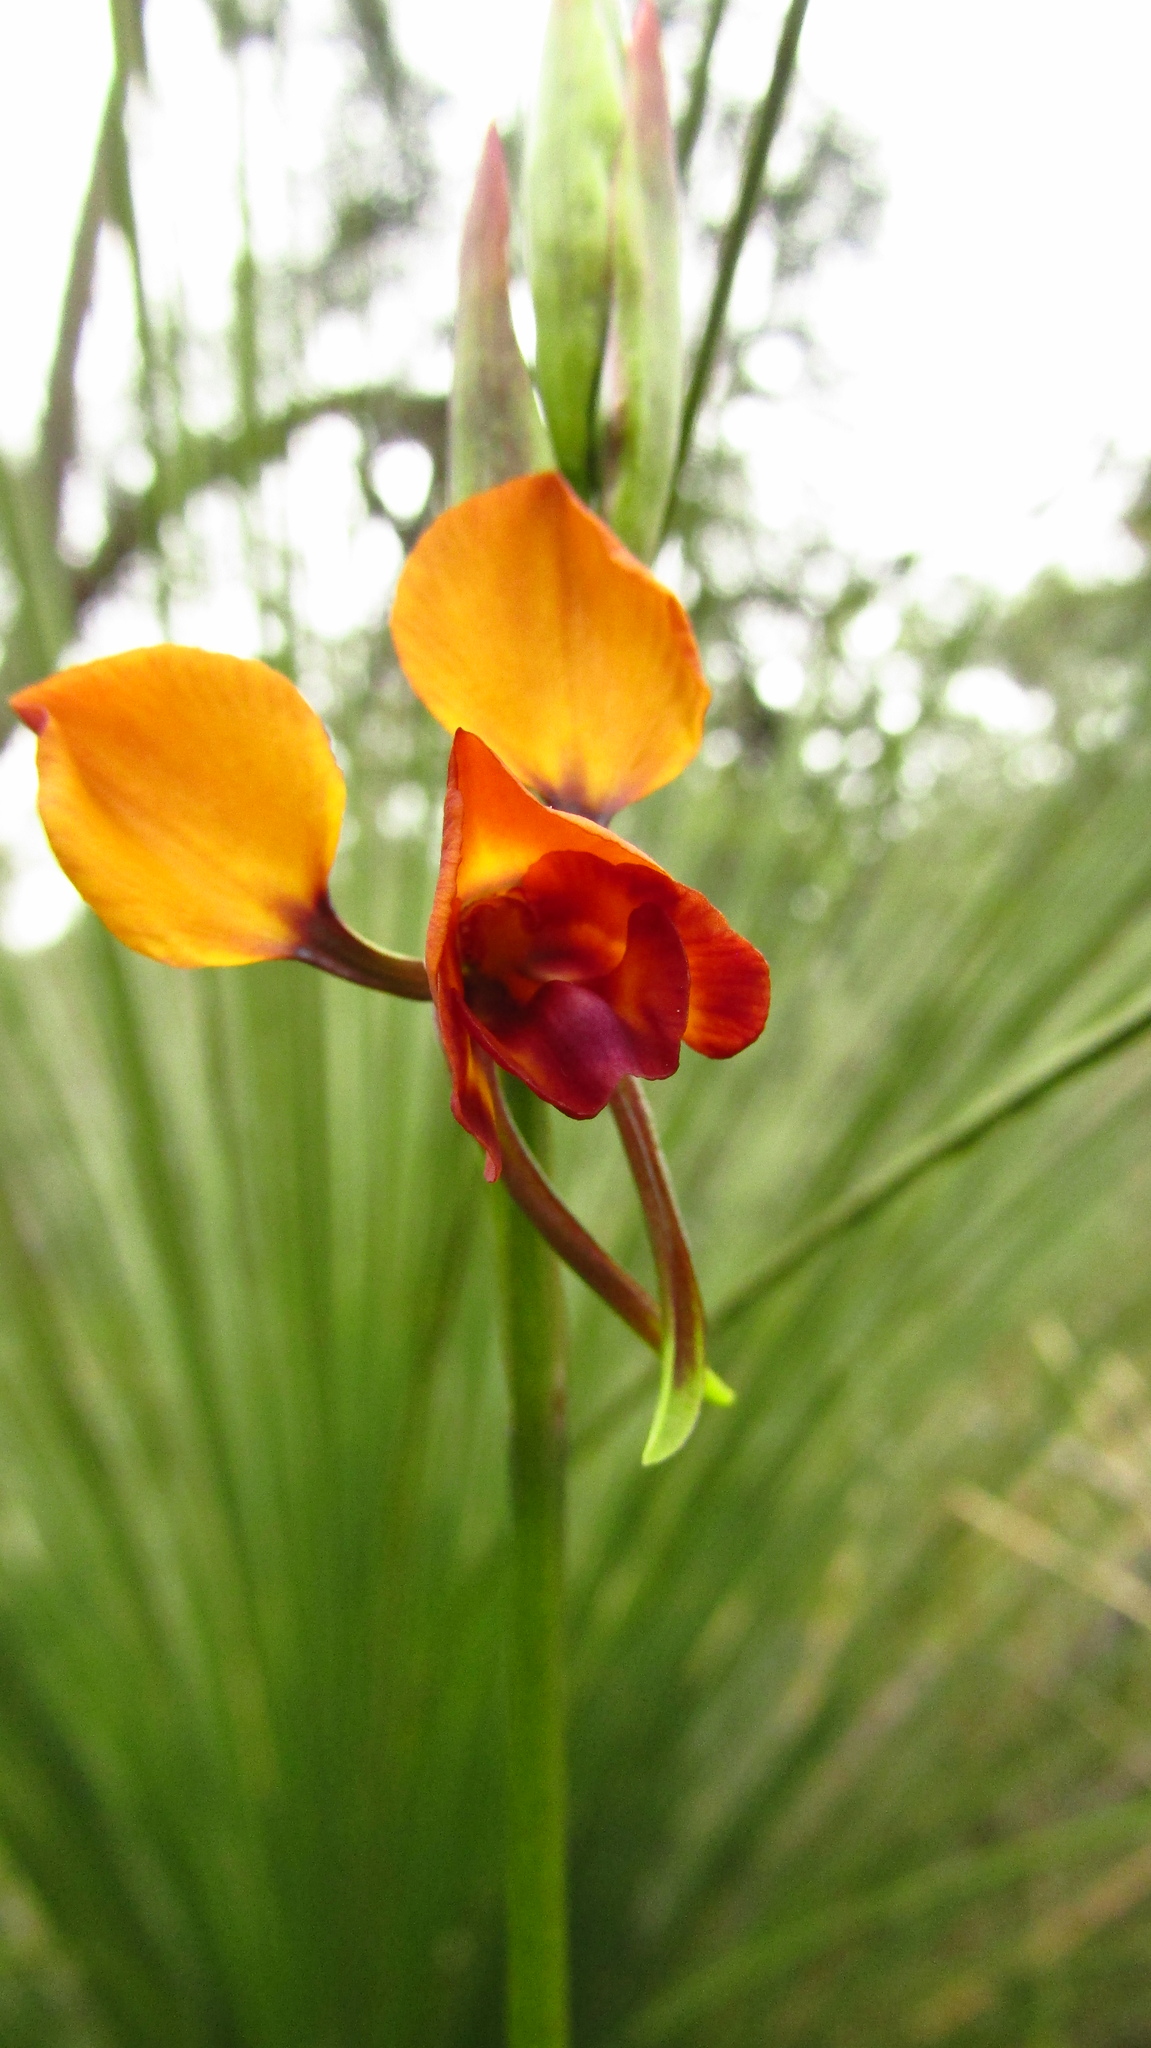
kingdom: Plantae
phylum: Tracheophyta
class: Liliopsida
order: Asparagales
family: Orchidaceae
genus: Diuris
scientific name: Diuris magnifica
